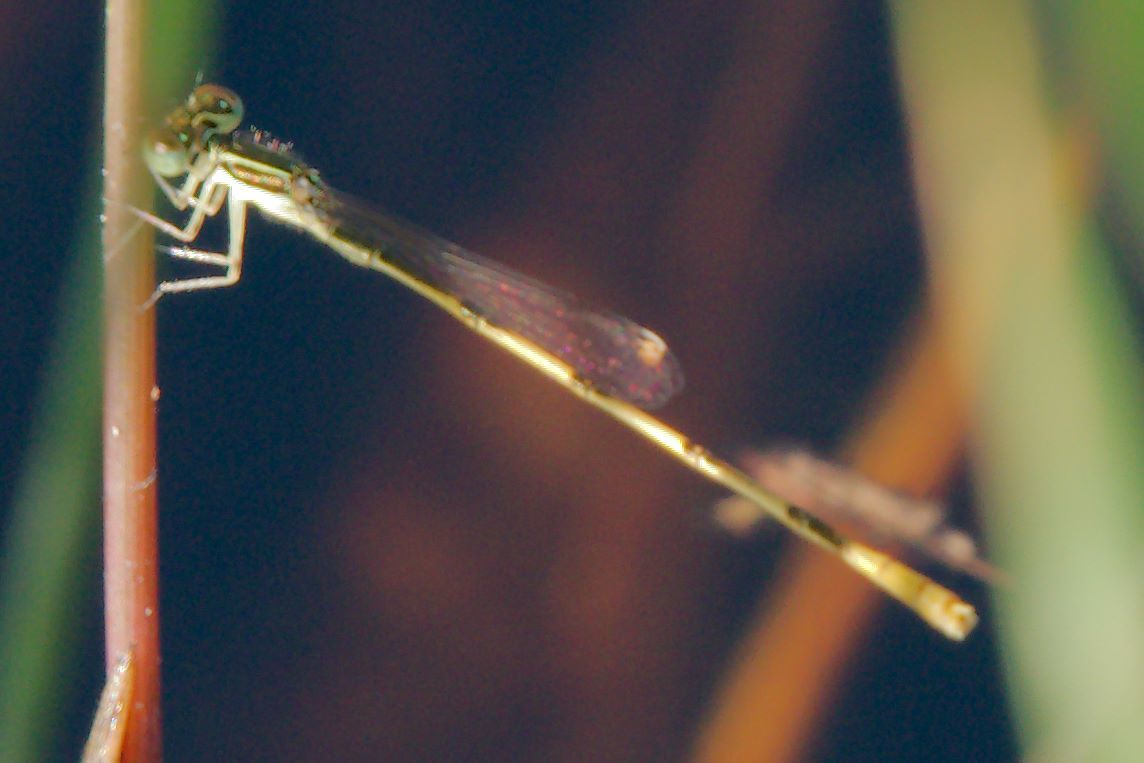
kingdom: Animalia
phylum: Arthropoda
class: Insecta
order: Odonata
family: Coenagrionidae
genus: Ischnura
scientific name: Ischnura hastata
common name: Citrine forktail
